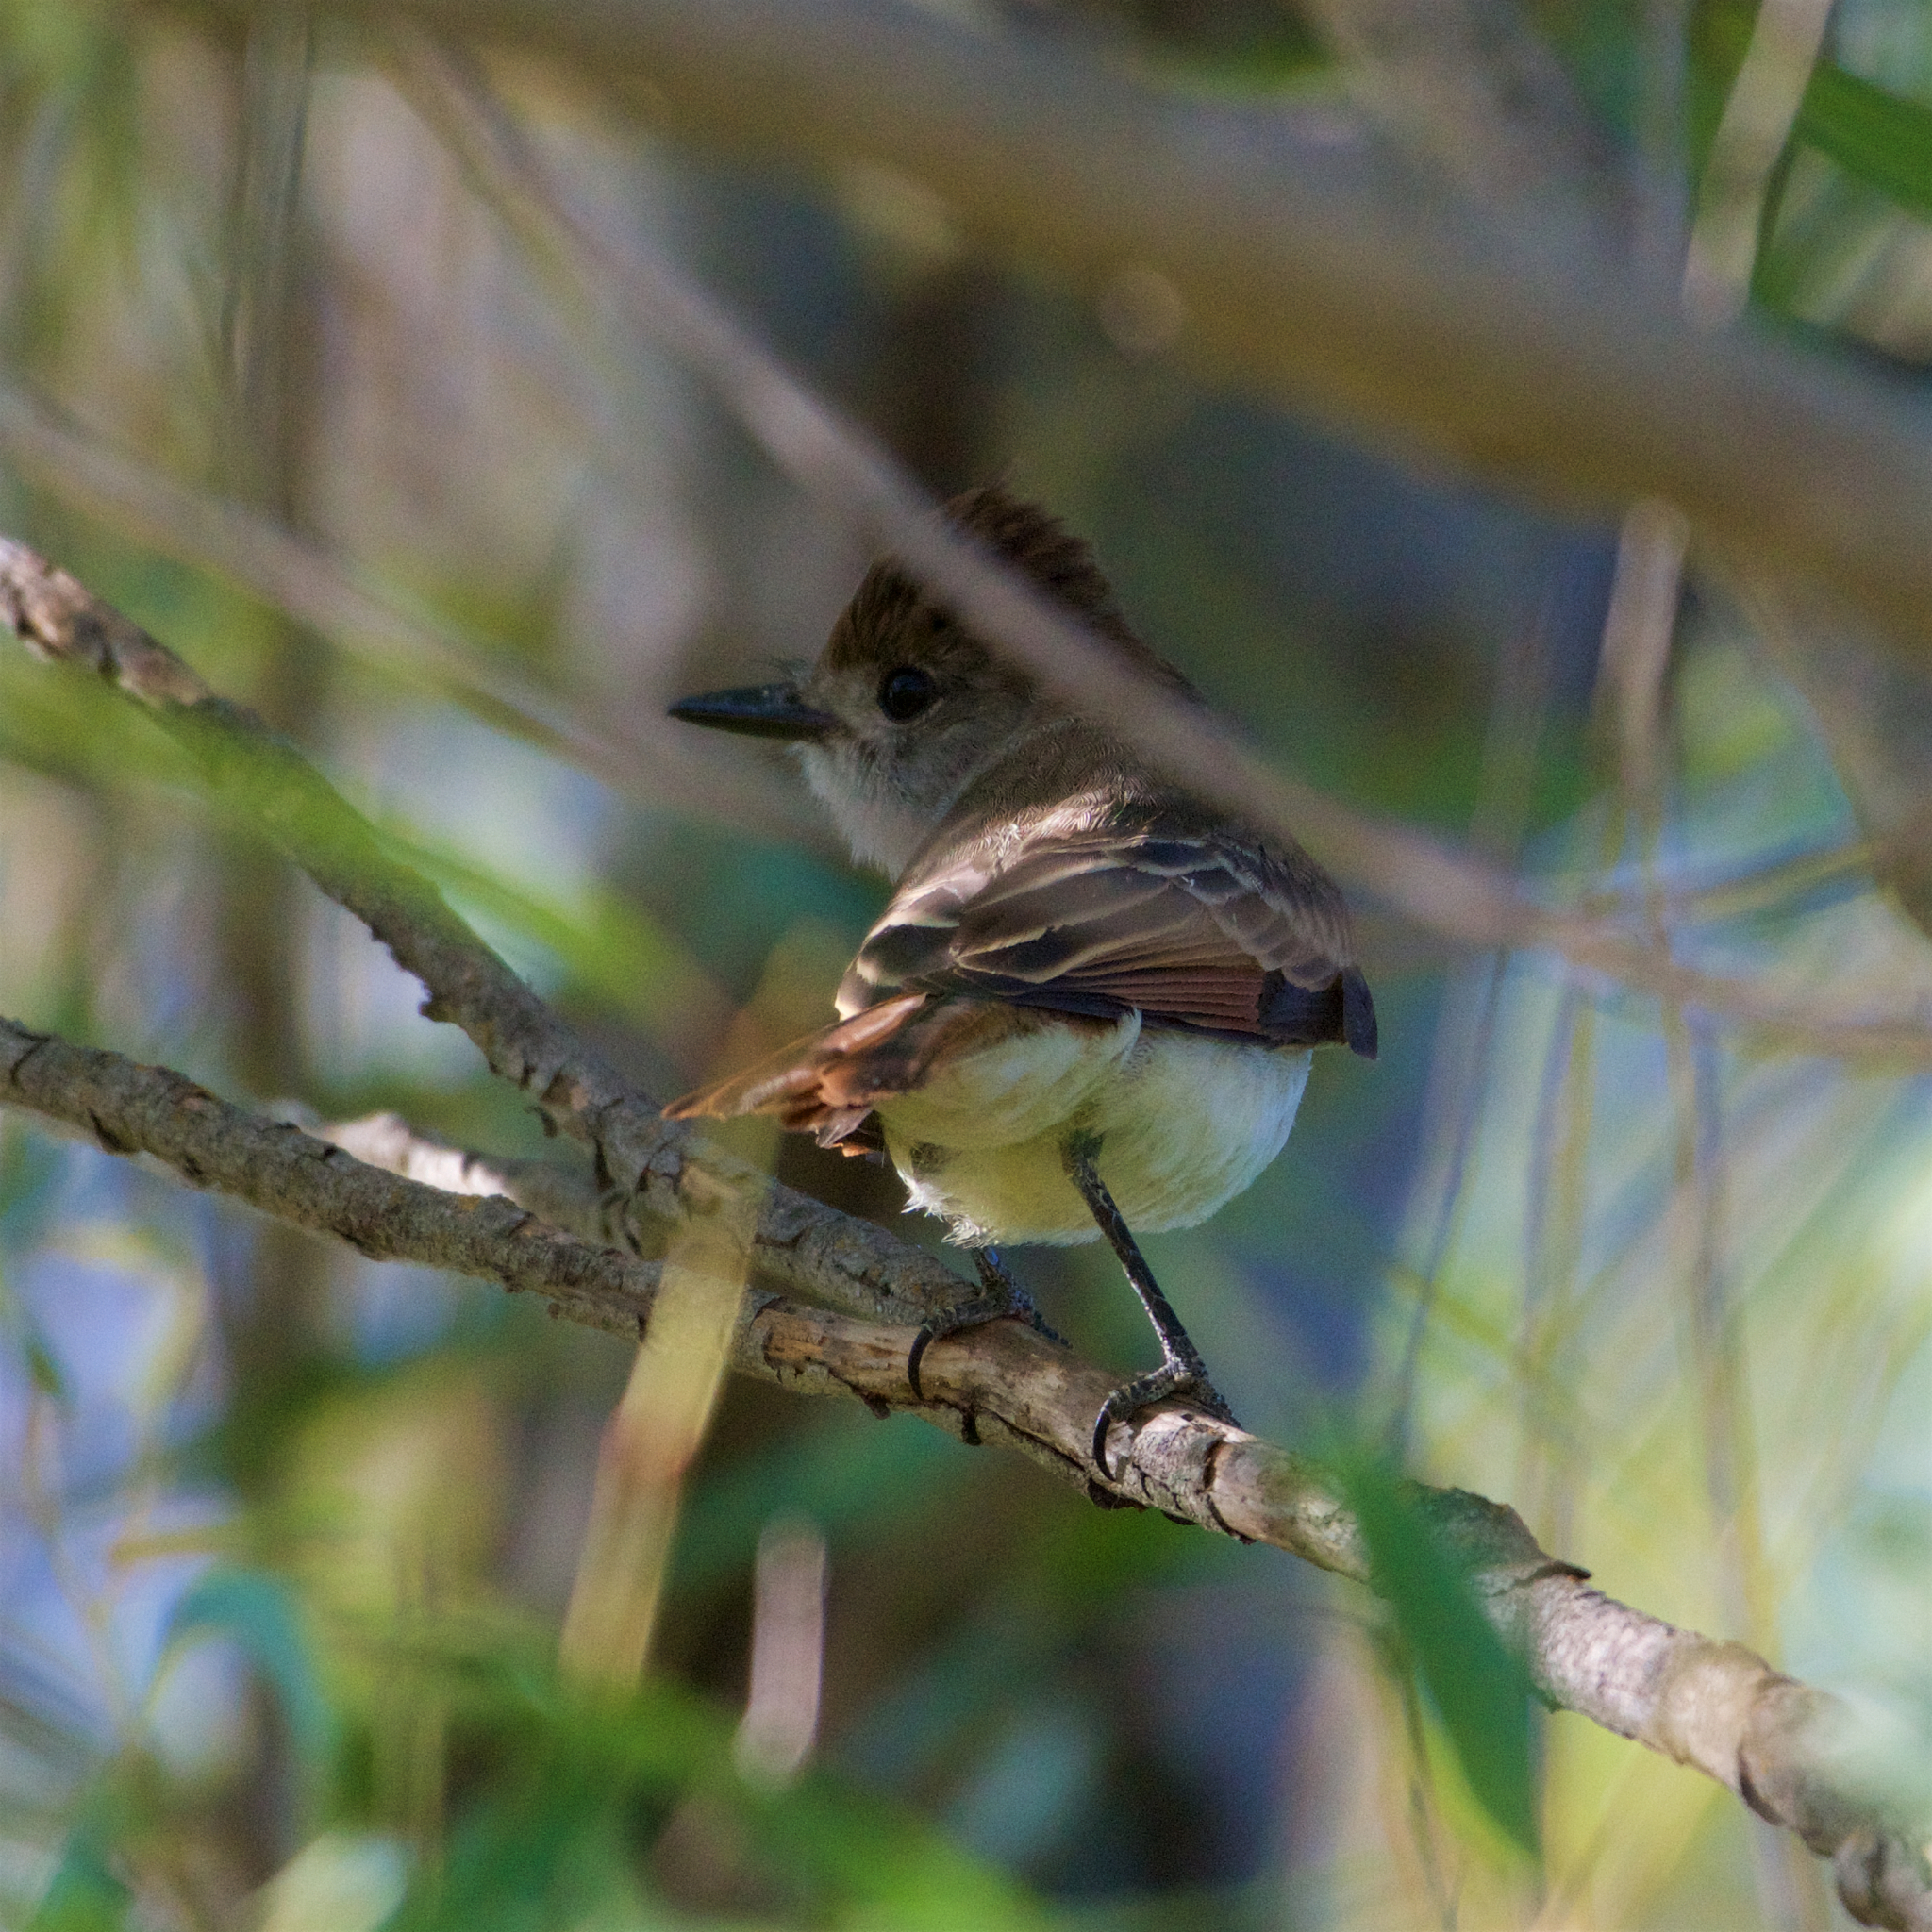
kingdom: Animalia
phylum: Chordata
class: Aves
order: Passeriformes
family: Tyrannidae
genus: Myiarchus
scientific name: Myiarchus cinerascens
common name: Ash-throated flycatcher
